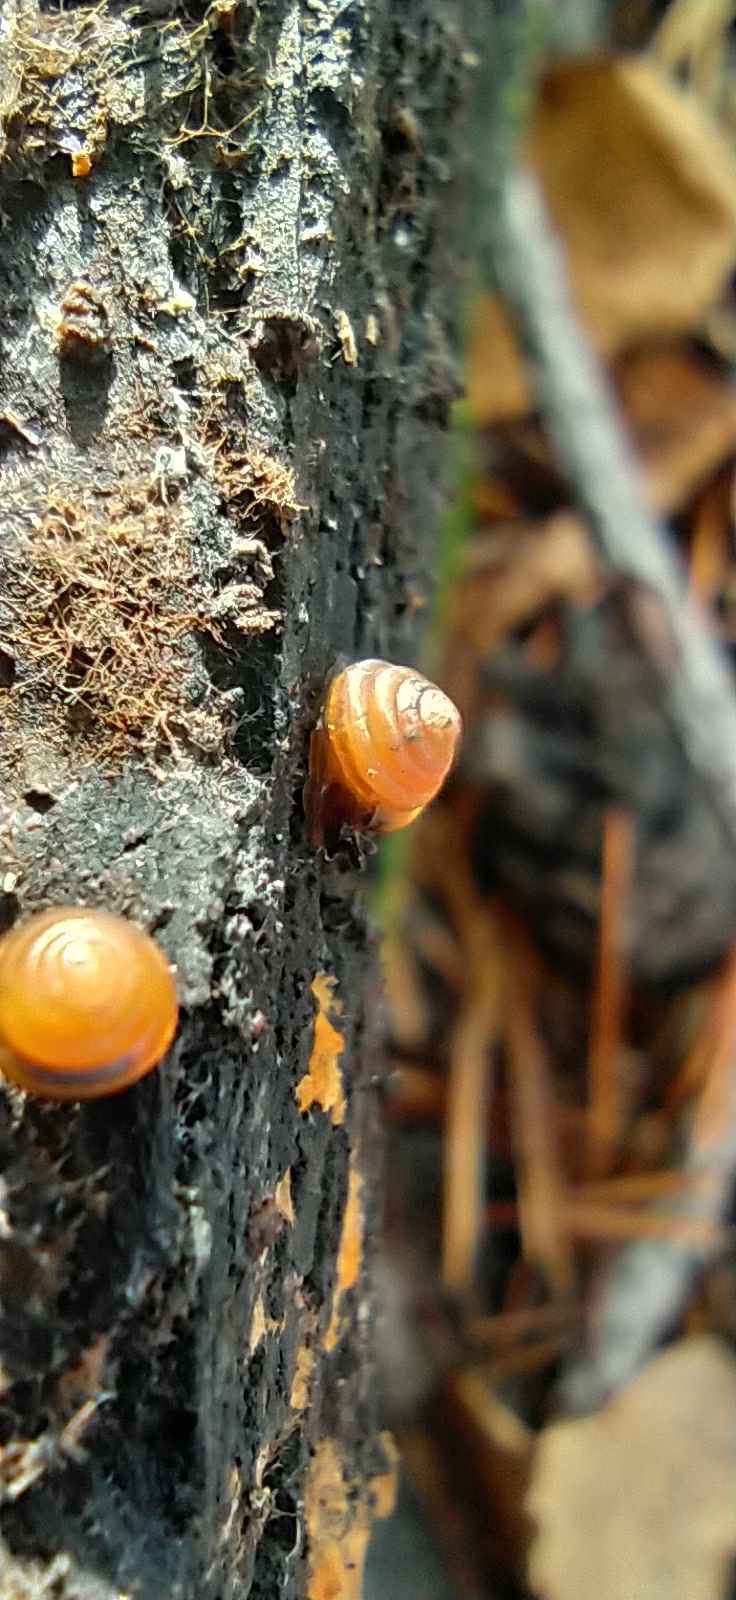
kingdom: Animalia
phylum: Mollusca
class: Gastropoda
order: Stylommatophora
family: Euconulidae
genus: Euconulus
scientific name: Euconulus fulvus
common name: Tawny glass snail
